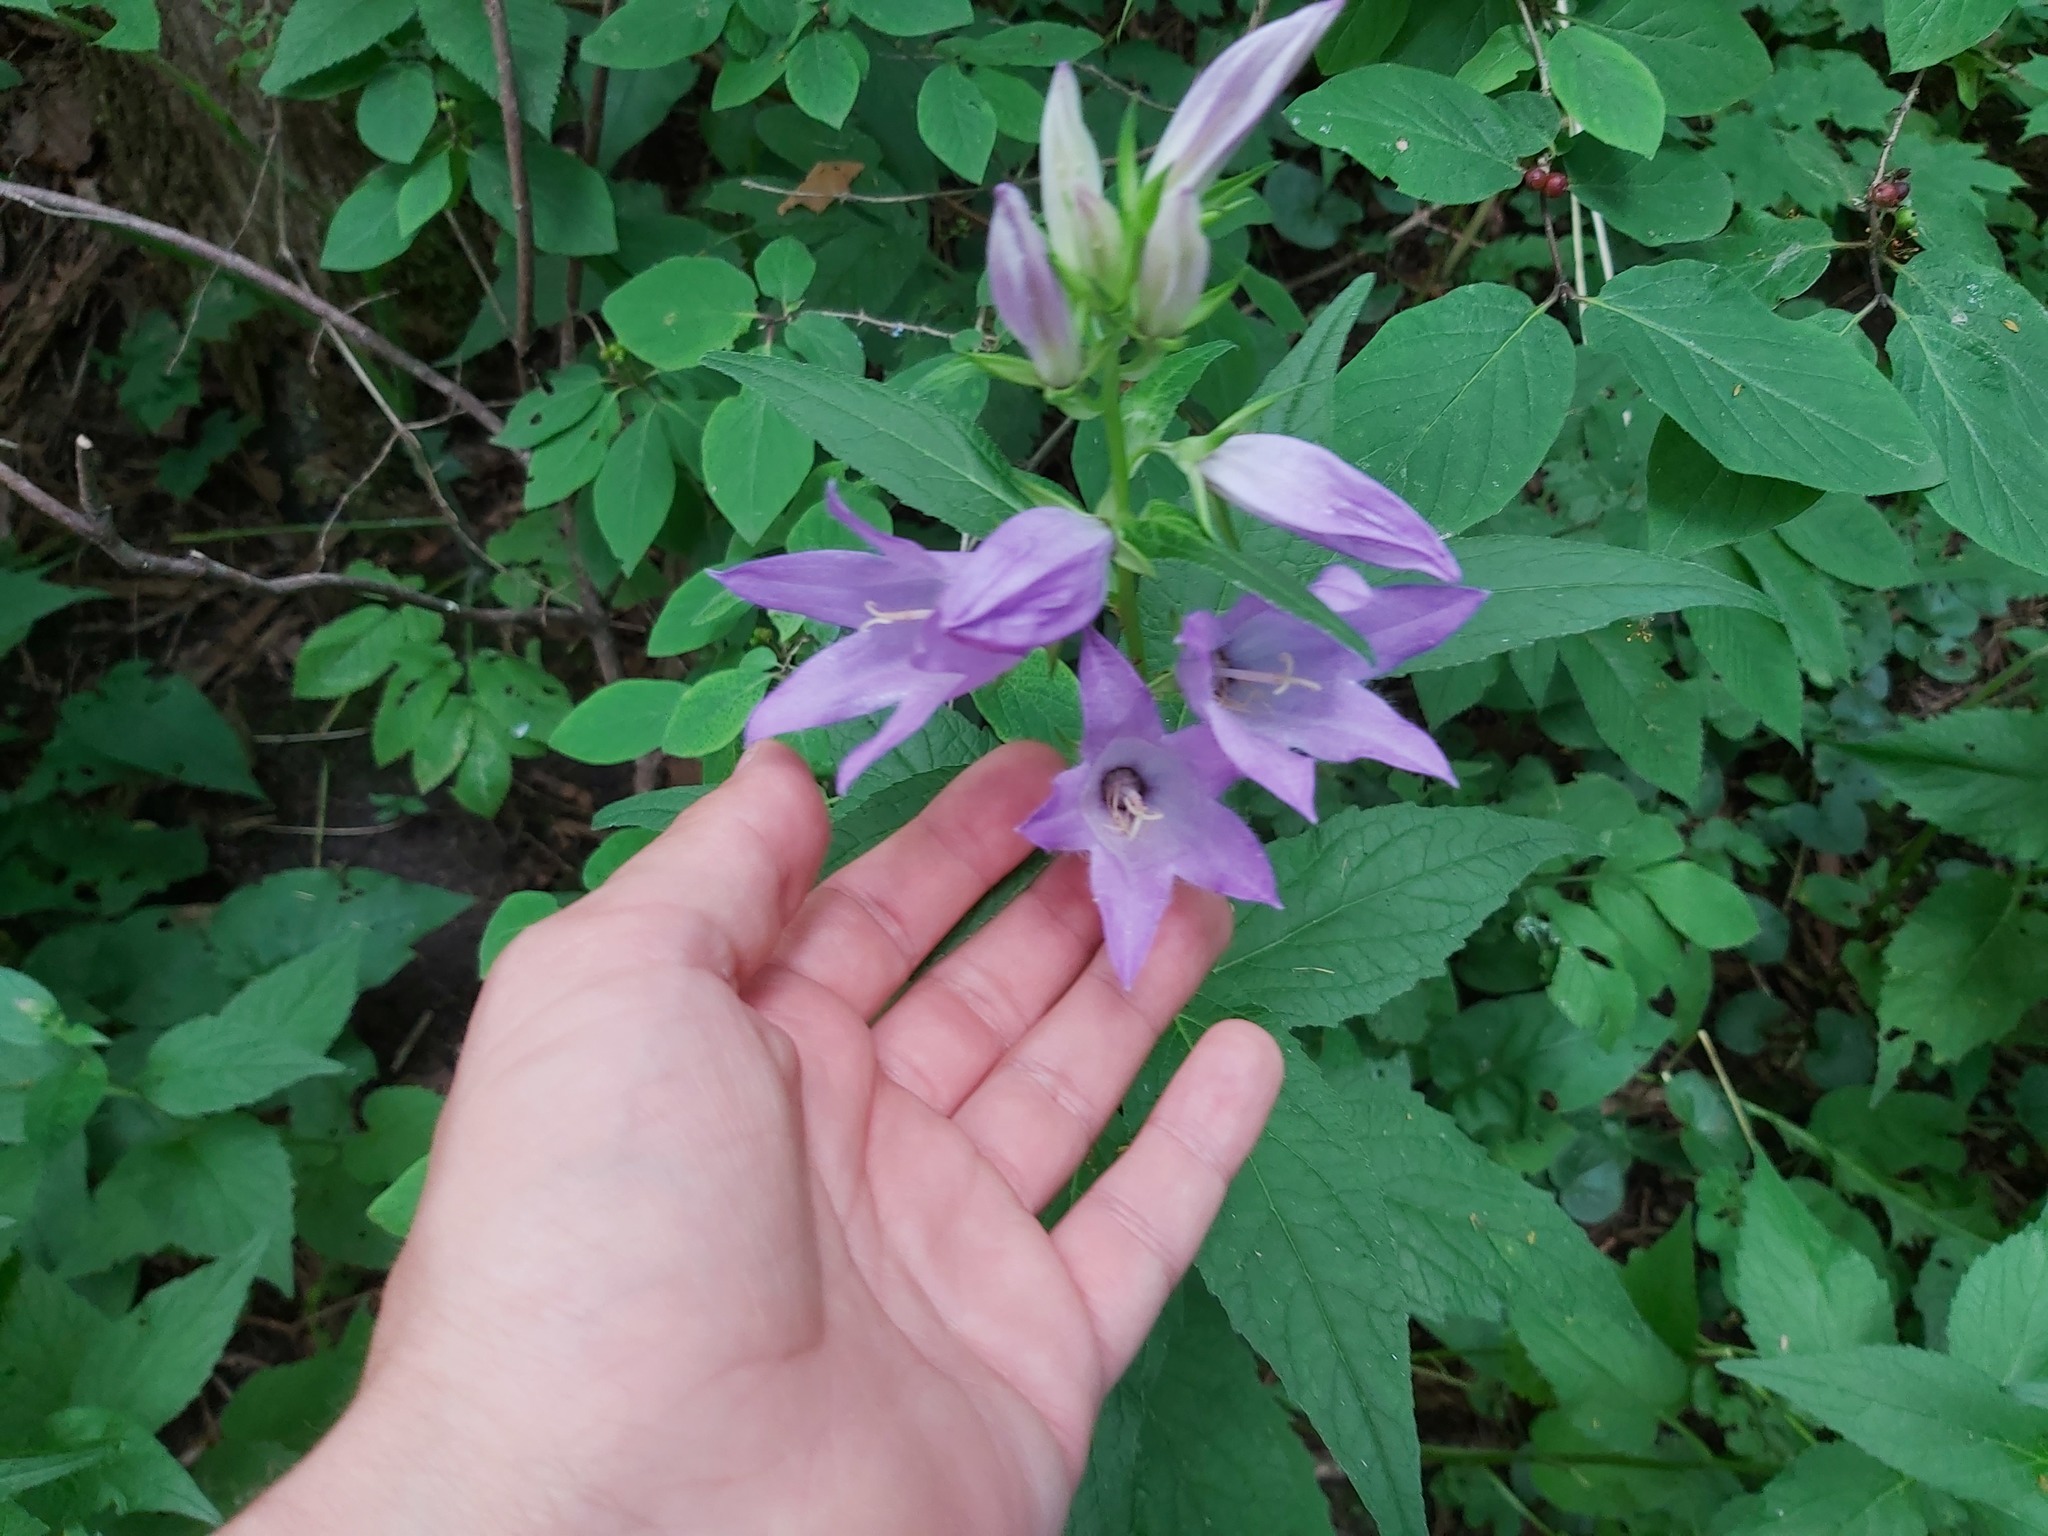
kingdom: Plantae
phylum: Tracheophyta
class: Magnoliopsida
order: Asterales
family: Campanulaceae
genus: Campanula
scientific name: Campanula latifolia
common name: Giant bellflower
